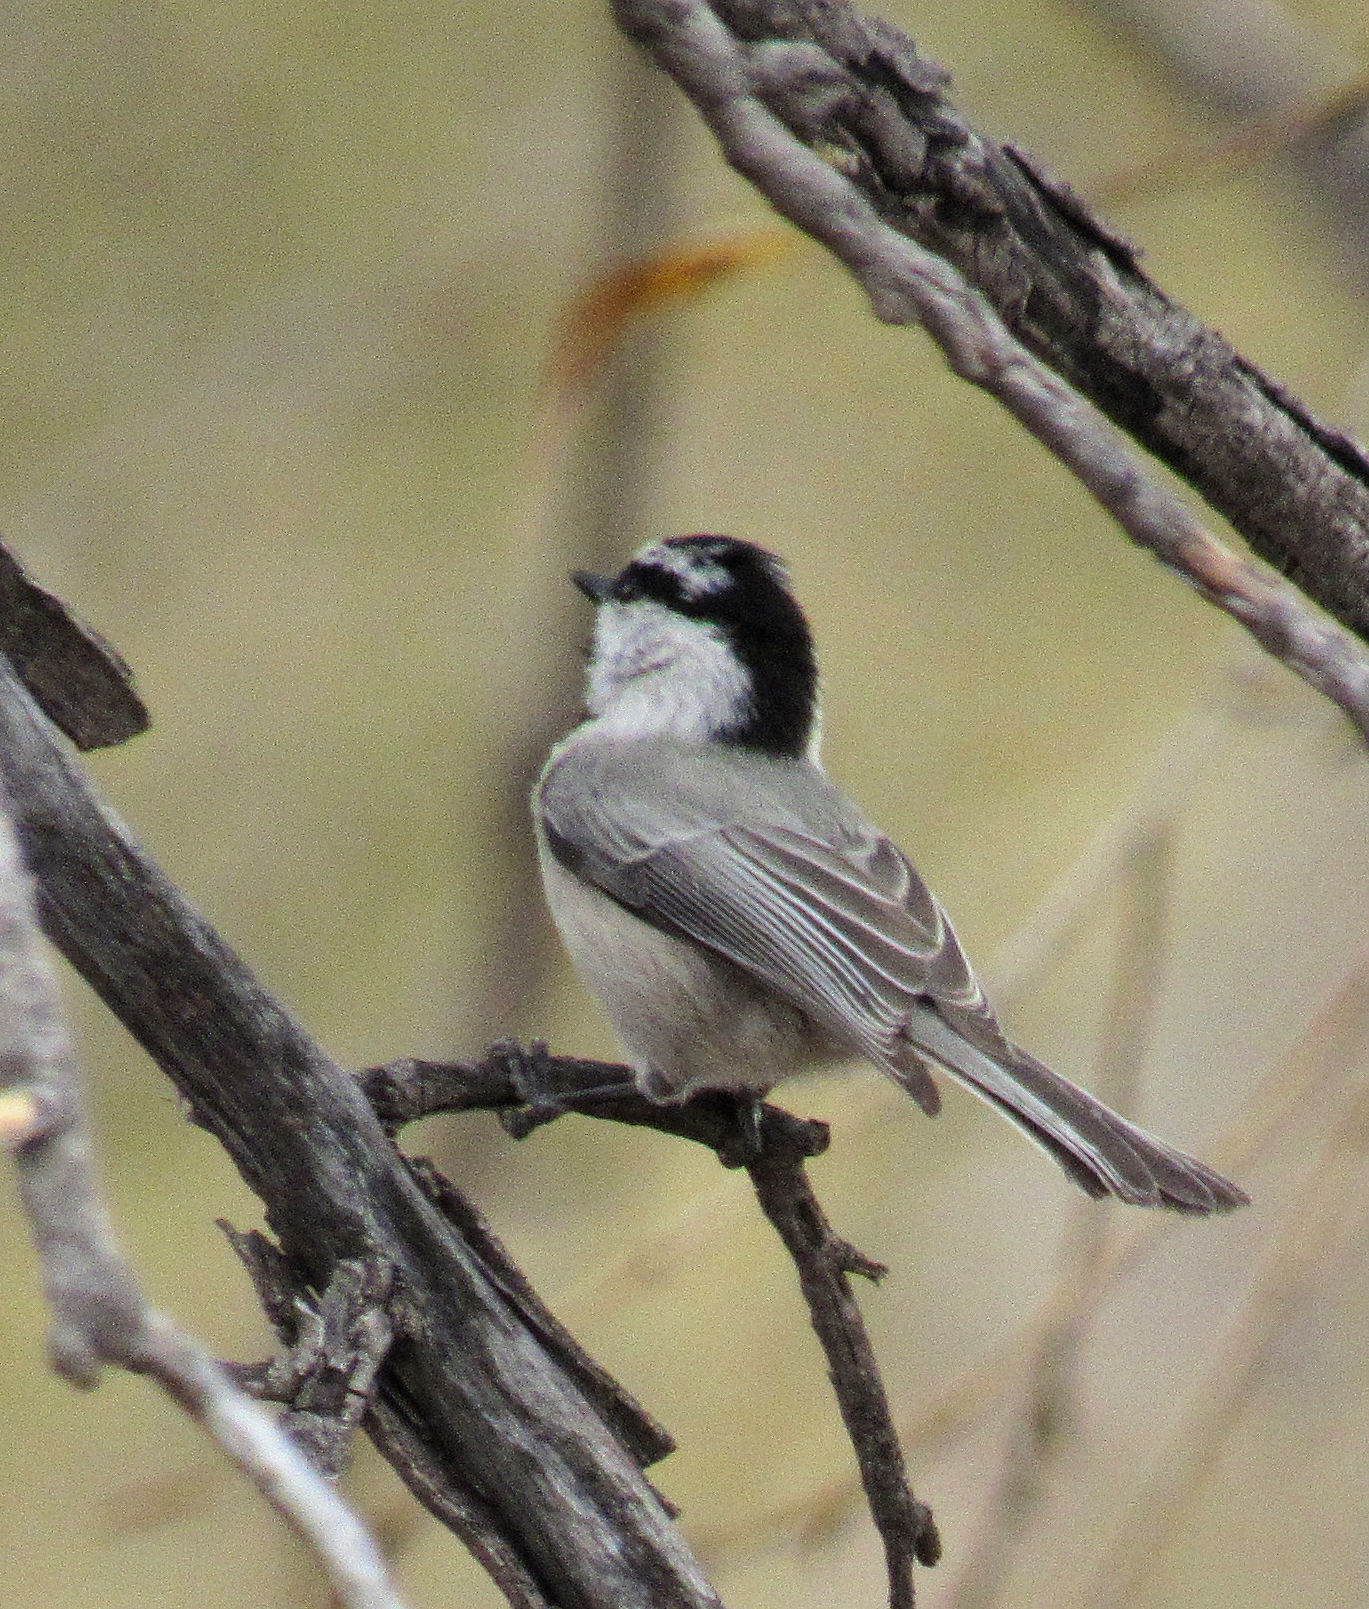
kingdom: Animalia
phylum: Chordata
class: Aves
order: Passeriformes
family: Paridae
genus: Poecile
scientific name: Poecile gambeli
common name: Mountain chickadee
